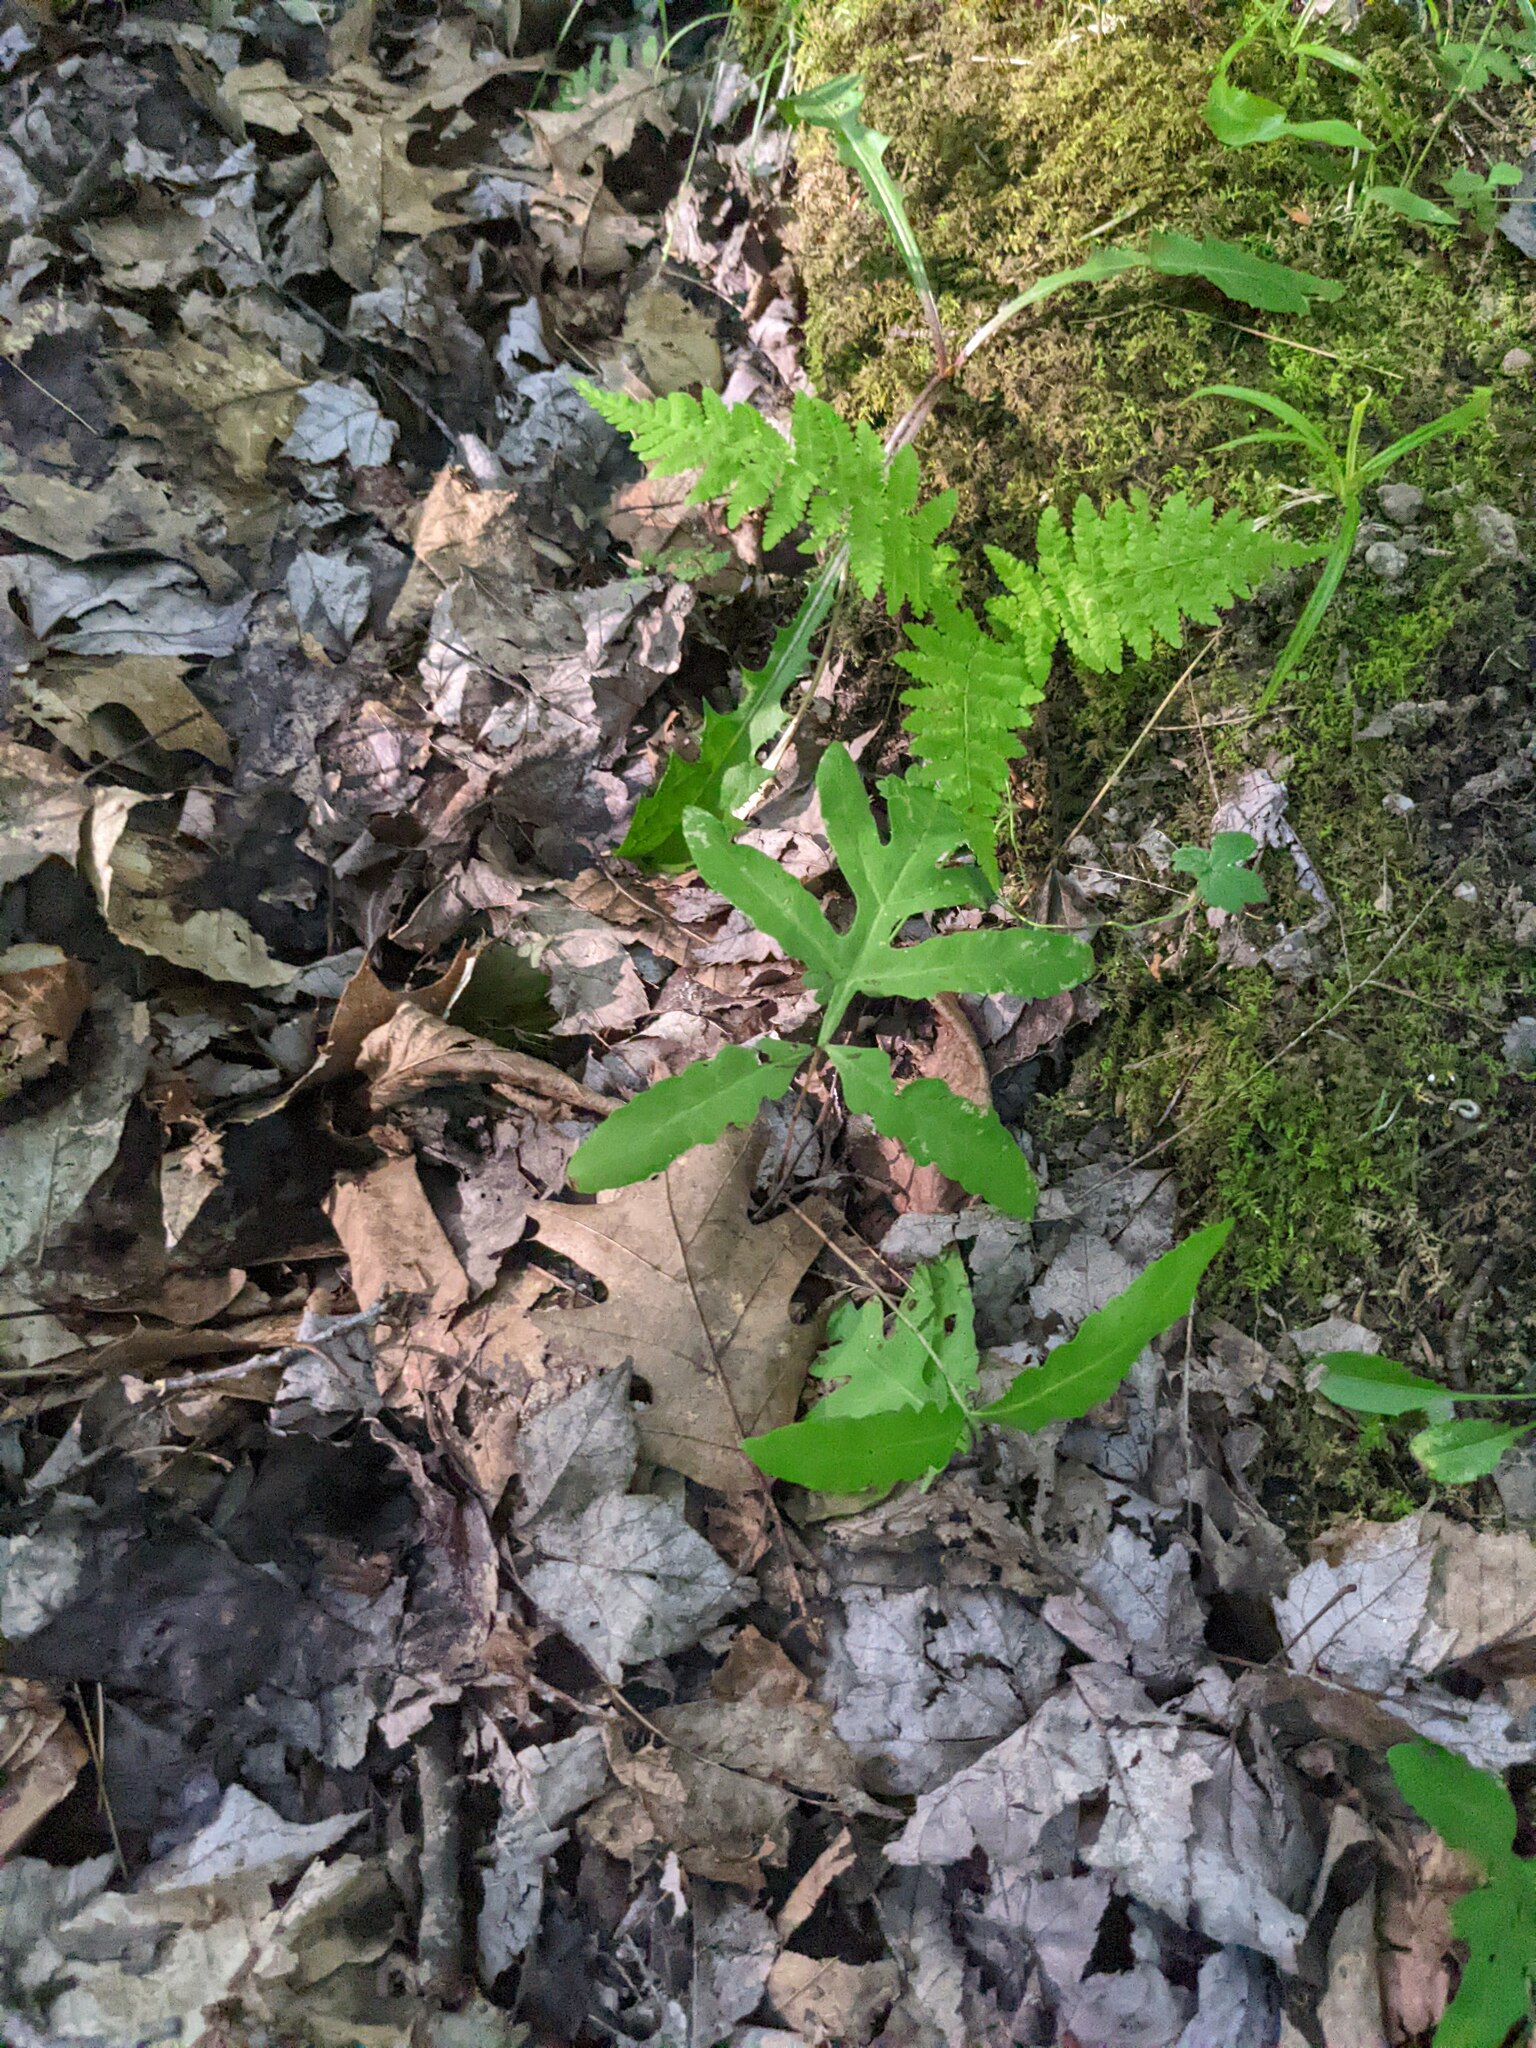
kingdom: Plantae
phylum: Tracheophyta
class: Polypodiopsida
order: Polypodiales
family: Onocleaceae
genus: Onoclea
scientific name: Onoclea sensibilis
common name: Sensitive fern
